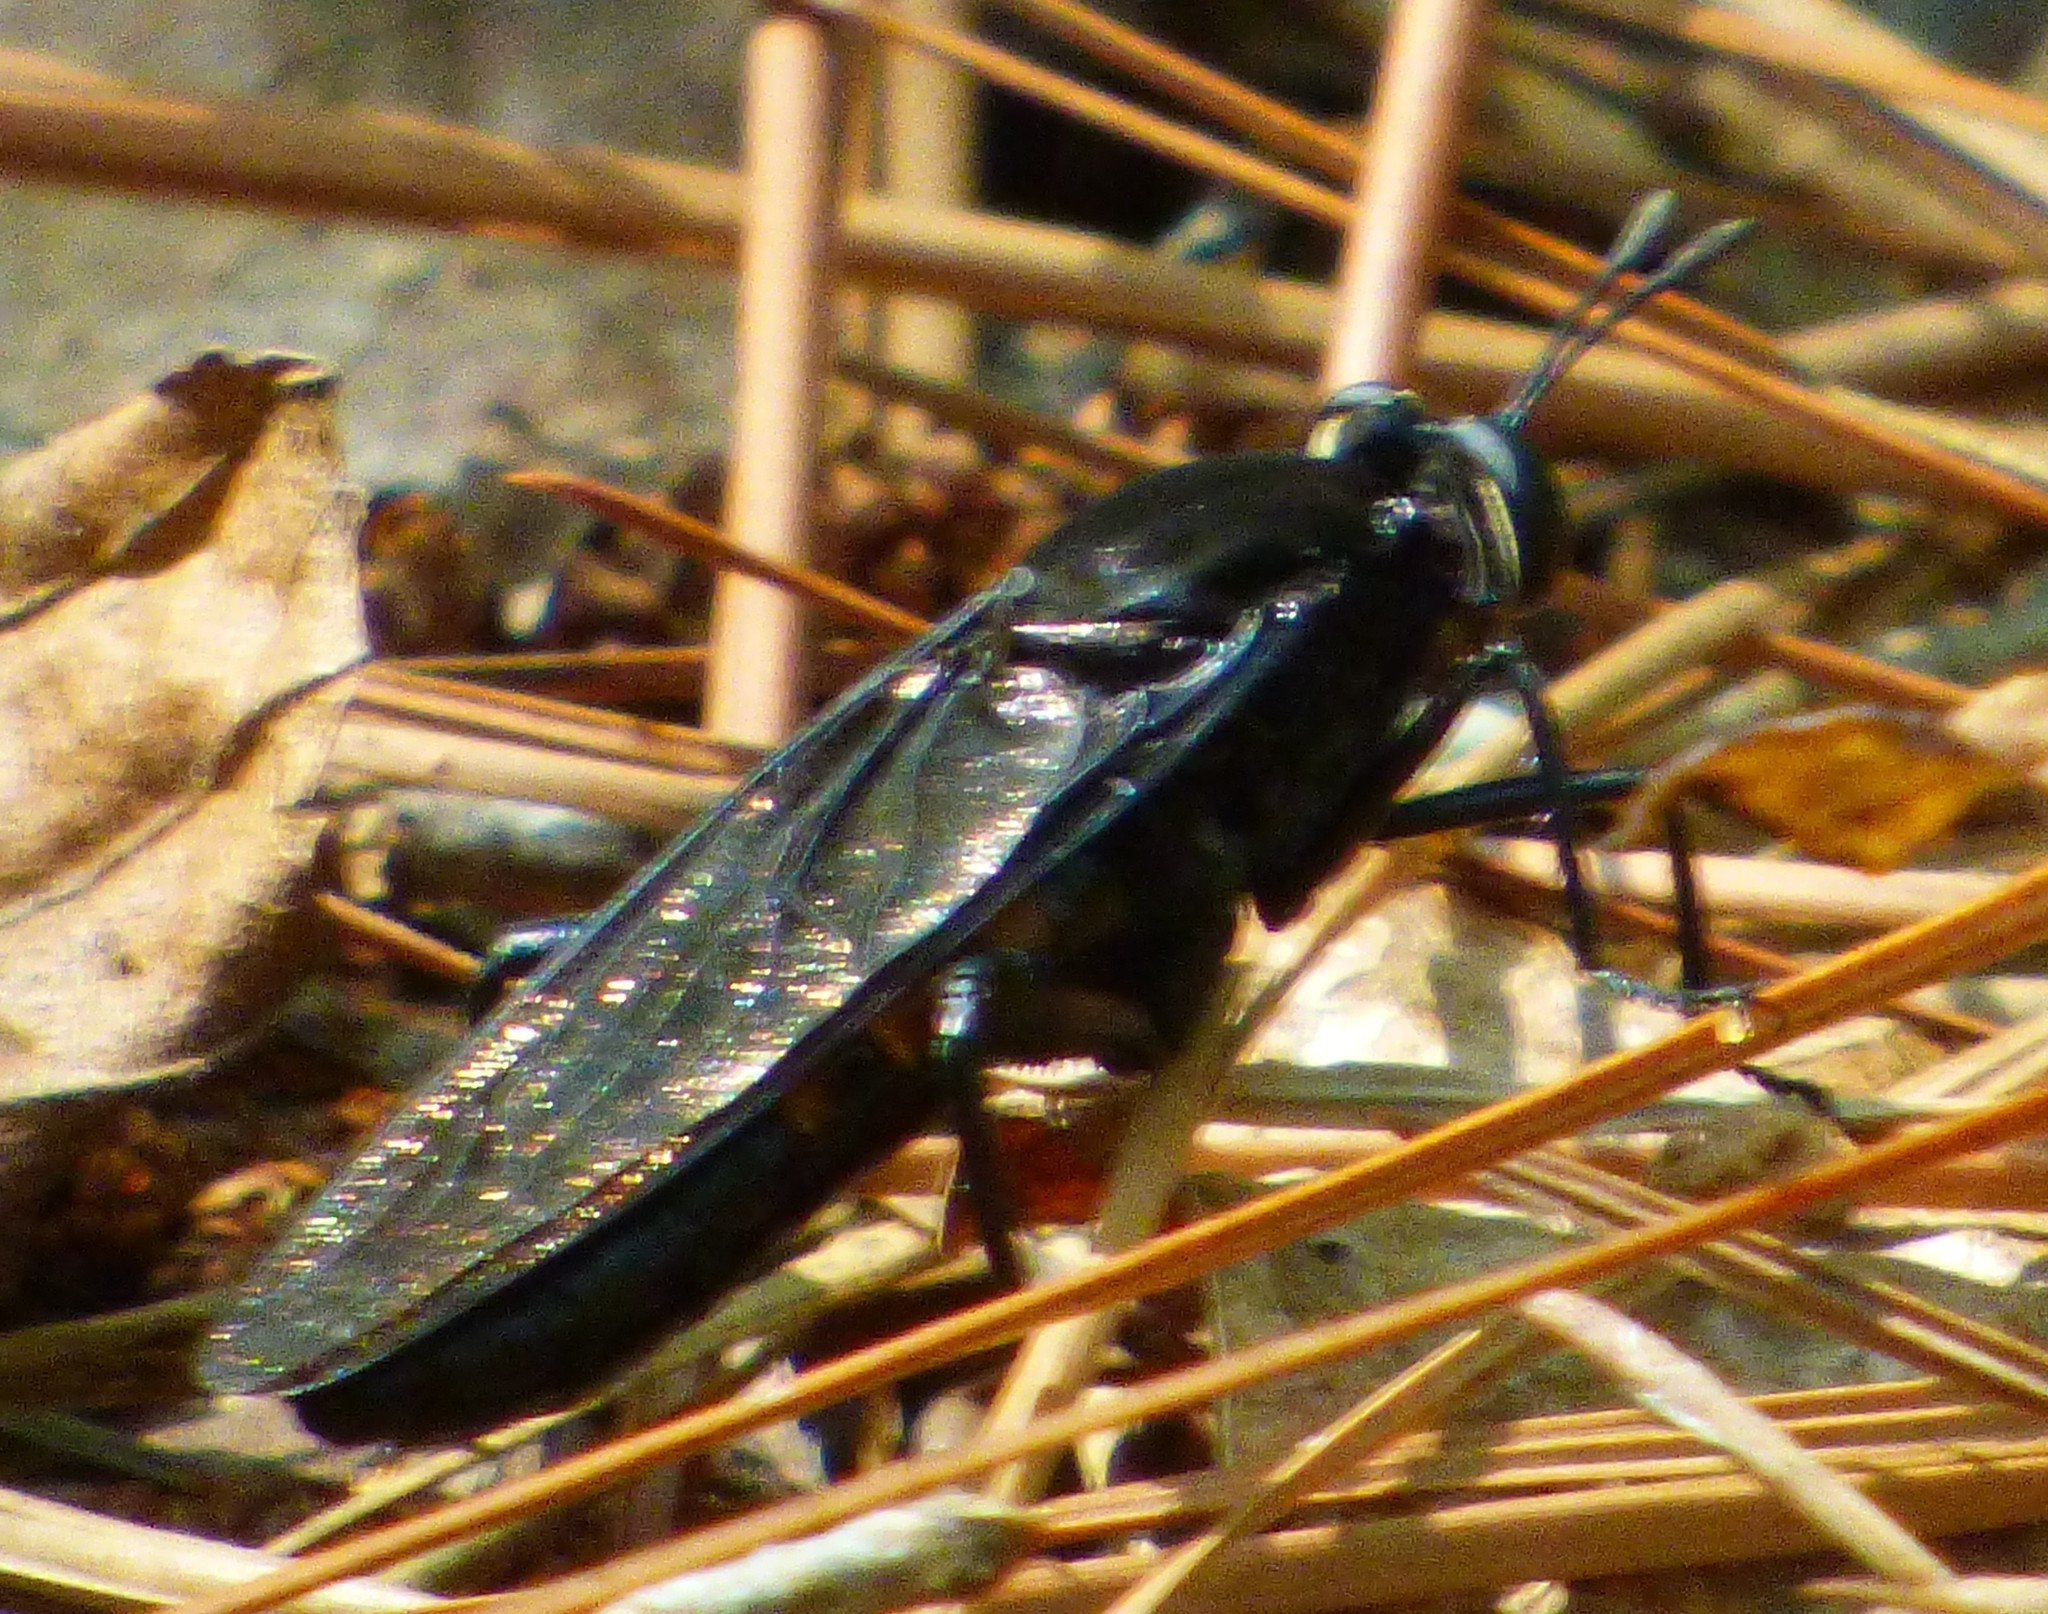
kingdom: Animalia
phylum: Arthropoda
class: Insecta
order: Diptera
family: Mydidae
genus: Mydas
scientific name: Mydas fulvifrons
